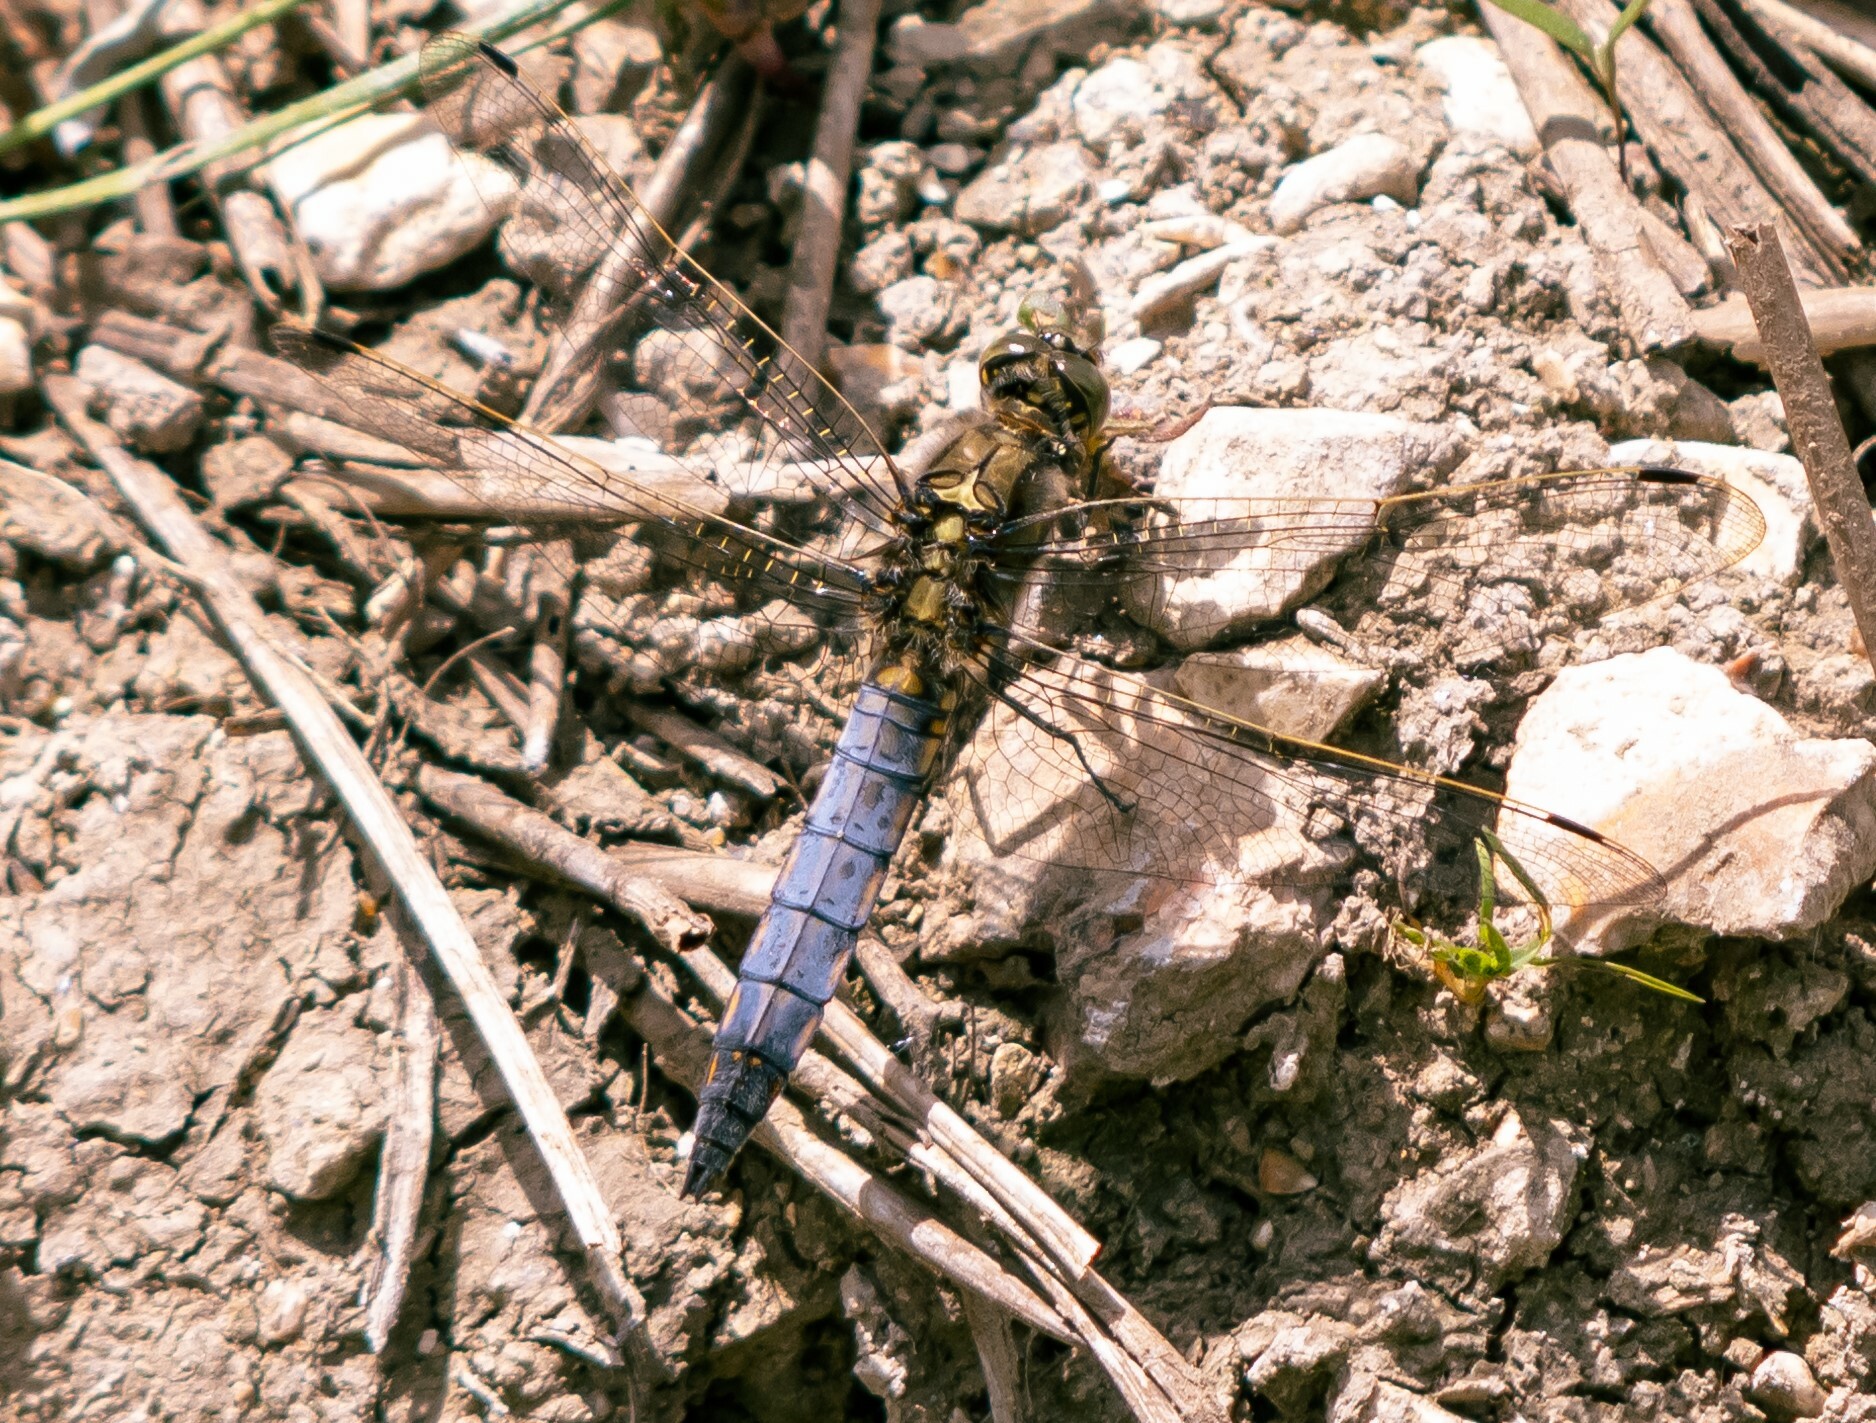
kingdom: Animalia
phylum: Arthropoda
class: Insecta
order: Odonata
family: Libellulidae
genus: Orthetrum
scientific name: Orthetrum cancellatum
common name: Black-tailed skimmer
